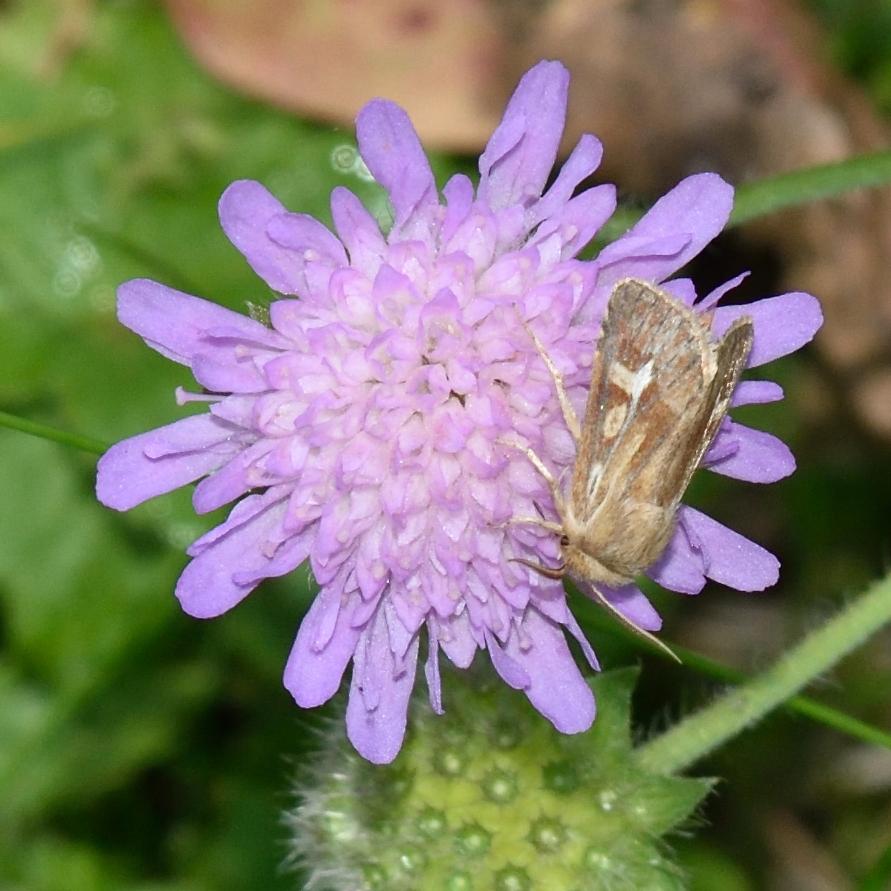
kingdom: Animalia
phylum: Arthropoda
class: Insecta
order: Lepidoptera
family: Noctuidae
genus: Cerapteryx
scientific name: Cerapteryx graminis
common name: Antler moth
